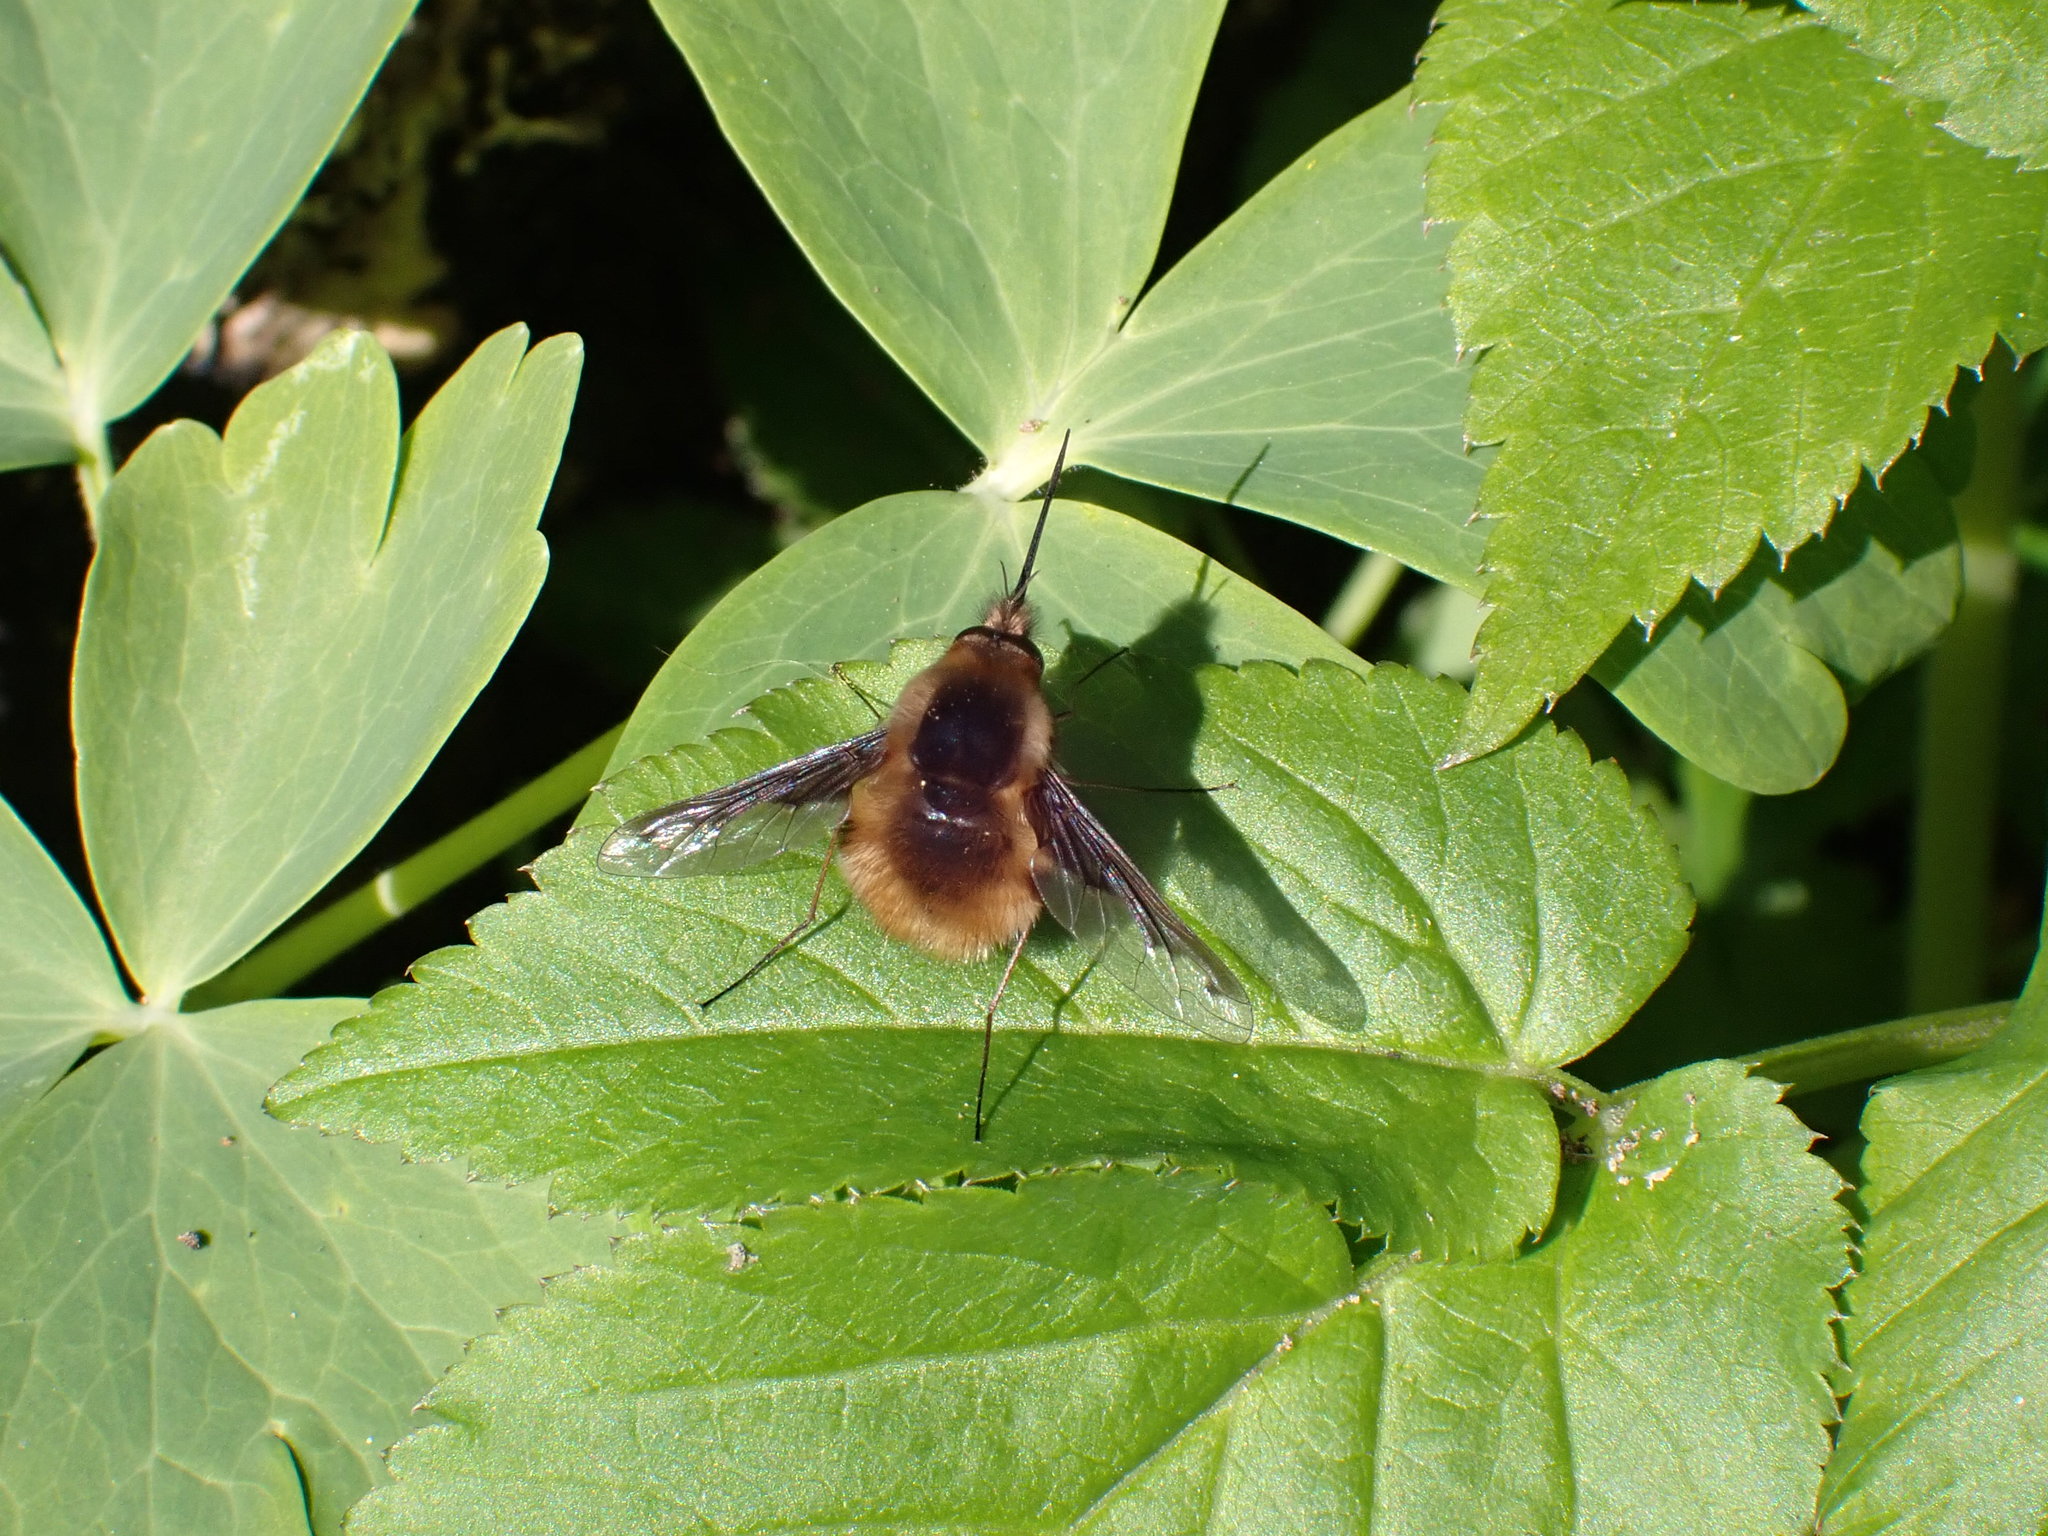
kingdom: Animalia
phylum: Arthropoda
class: Insecta
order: Diptera
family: Bombyliidae
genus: Bombylius
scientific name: Bombylius major
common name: Bee fly
